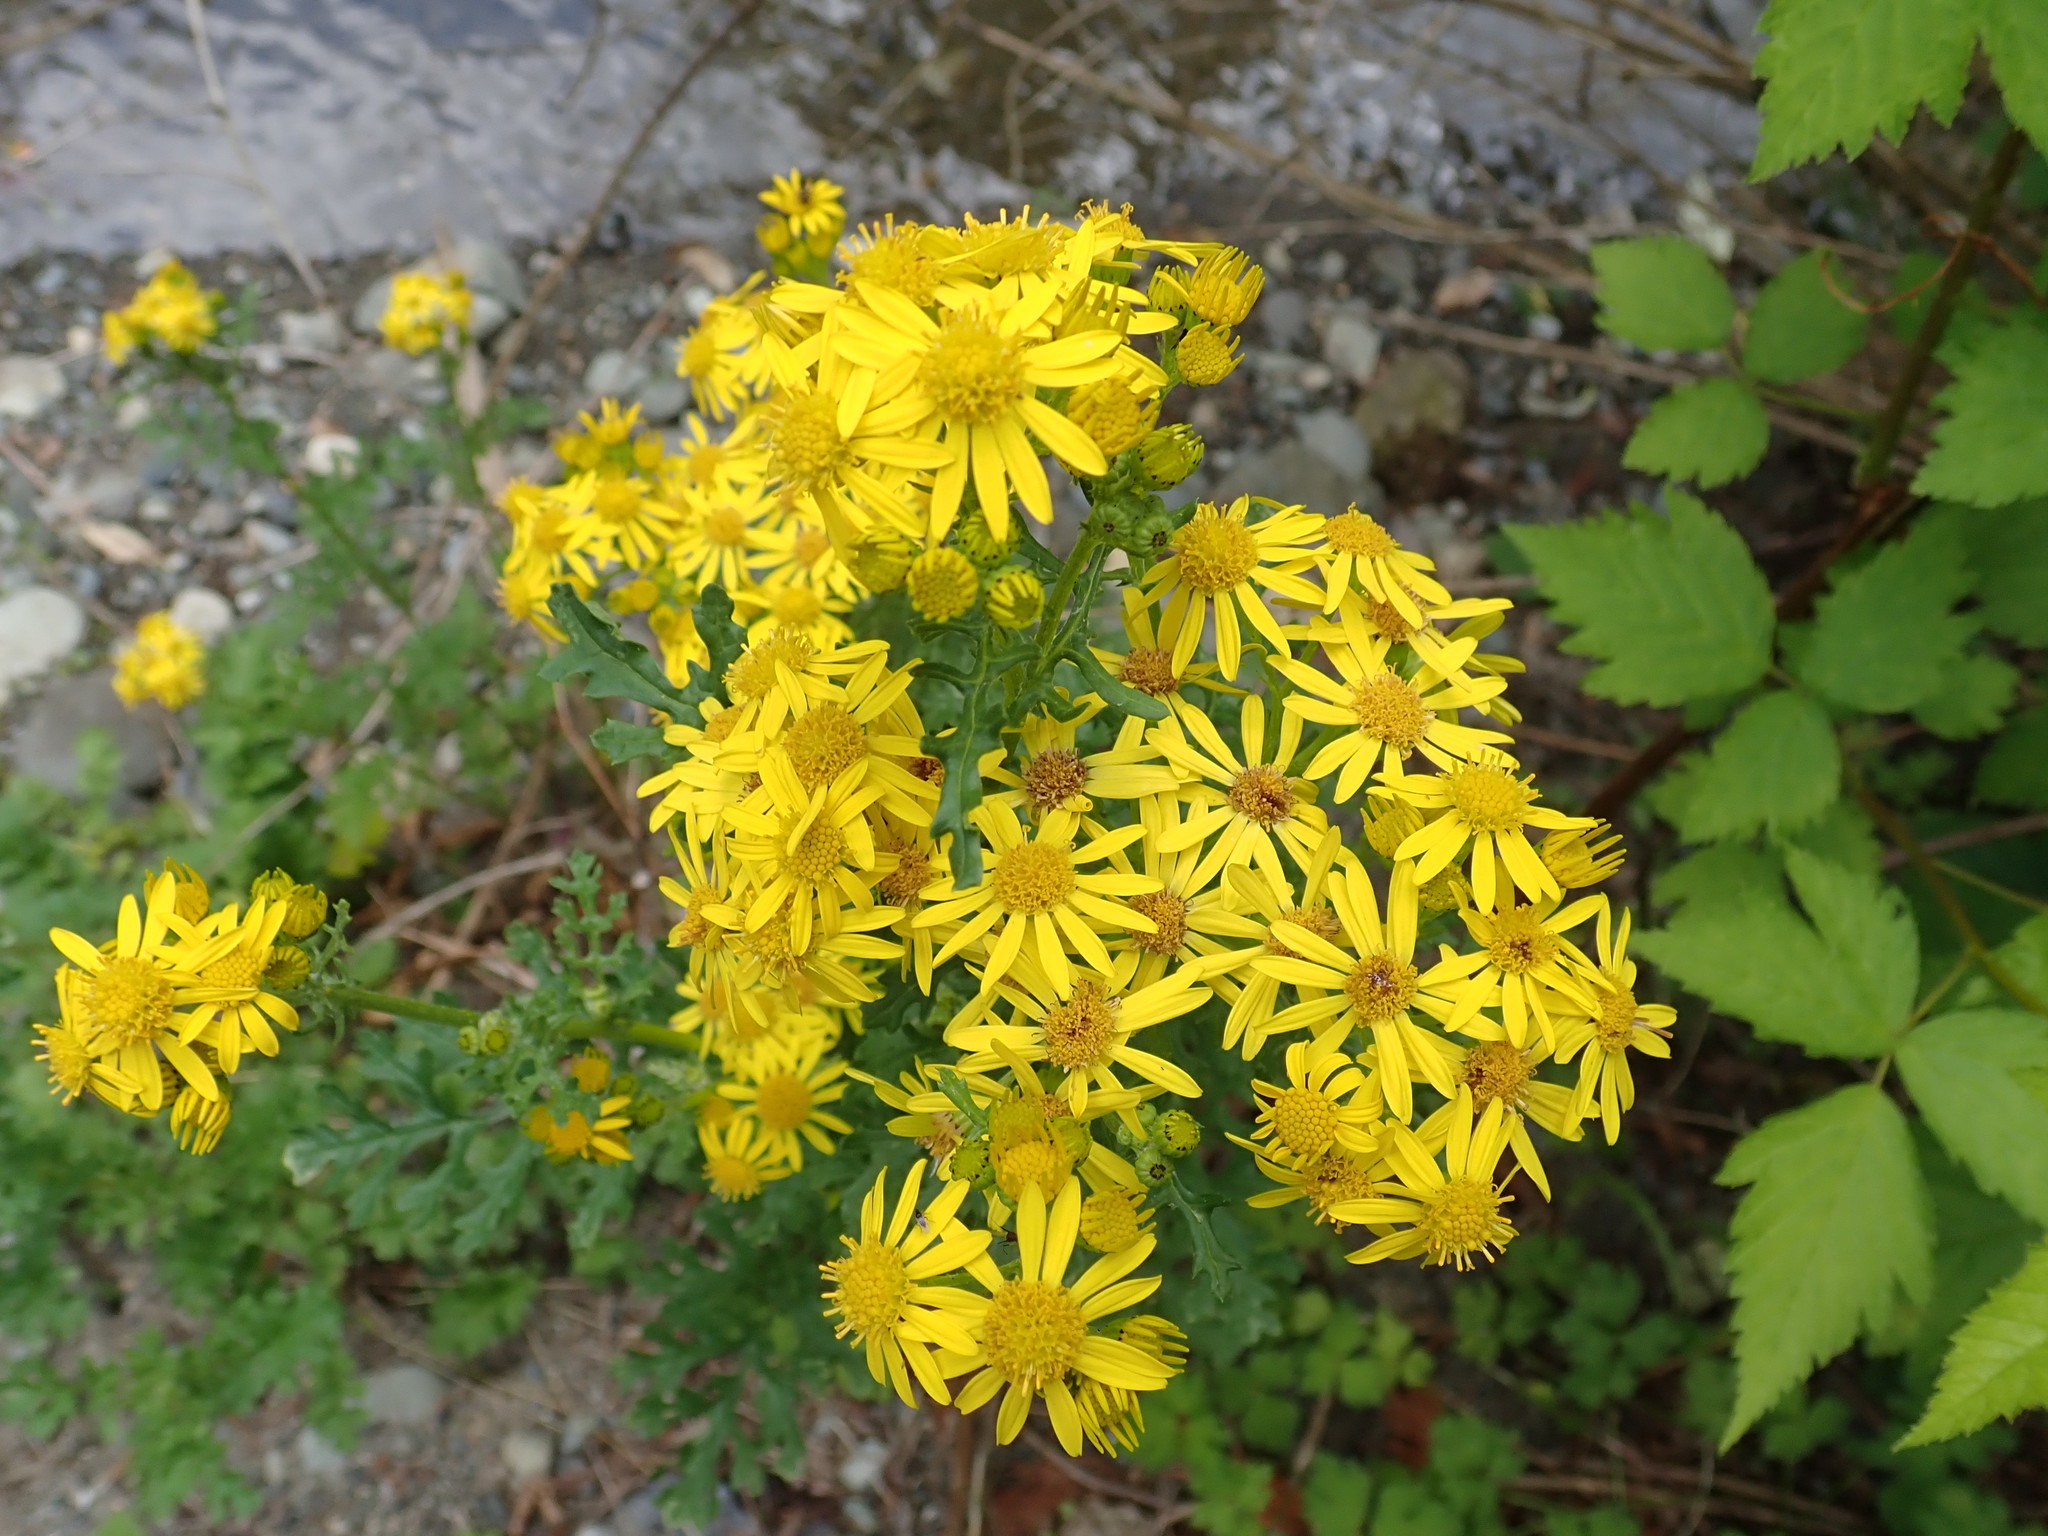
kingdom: Plantae
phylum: Tracheophyta
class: Magnoliopsida
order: Asterales
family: Asteraceae
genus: Jacobaea
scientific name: Jacobaea vulgaris
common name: Stinking willie
